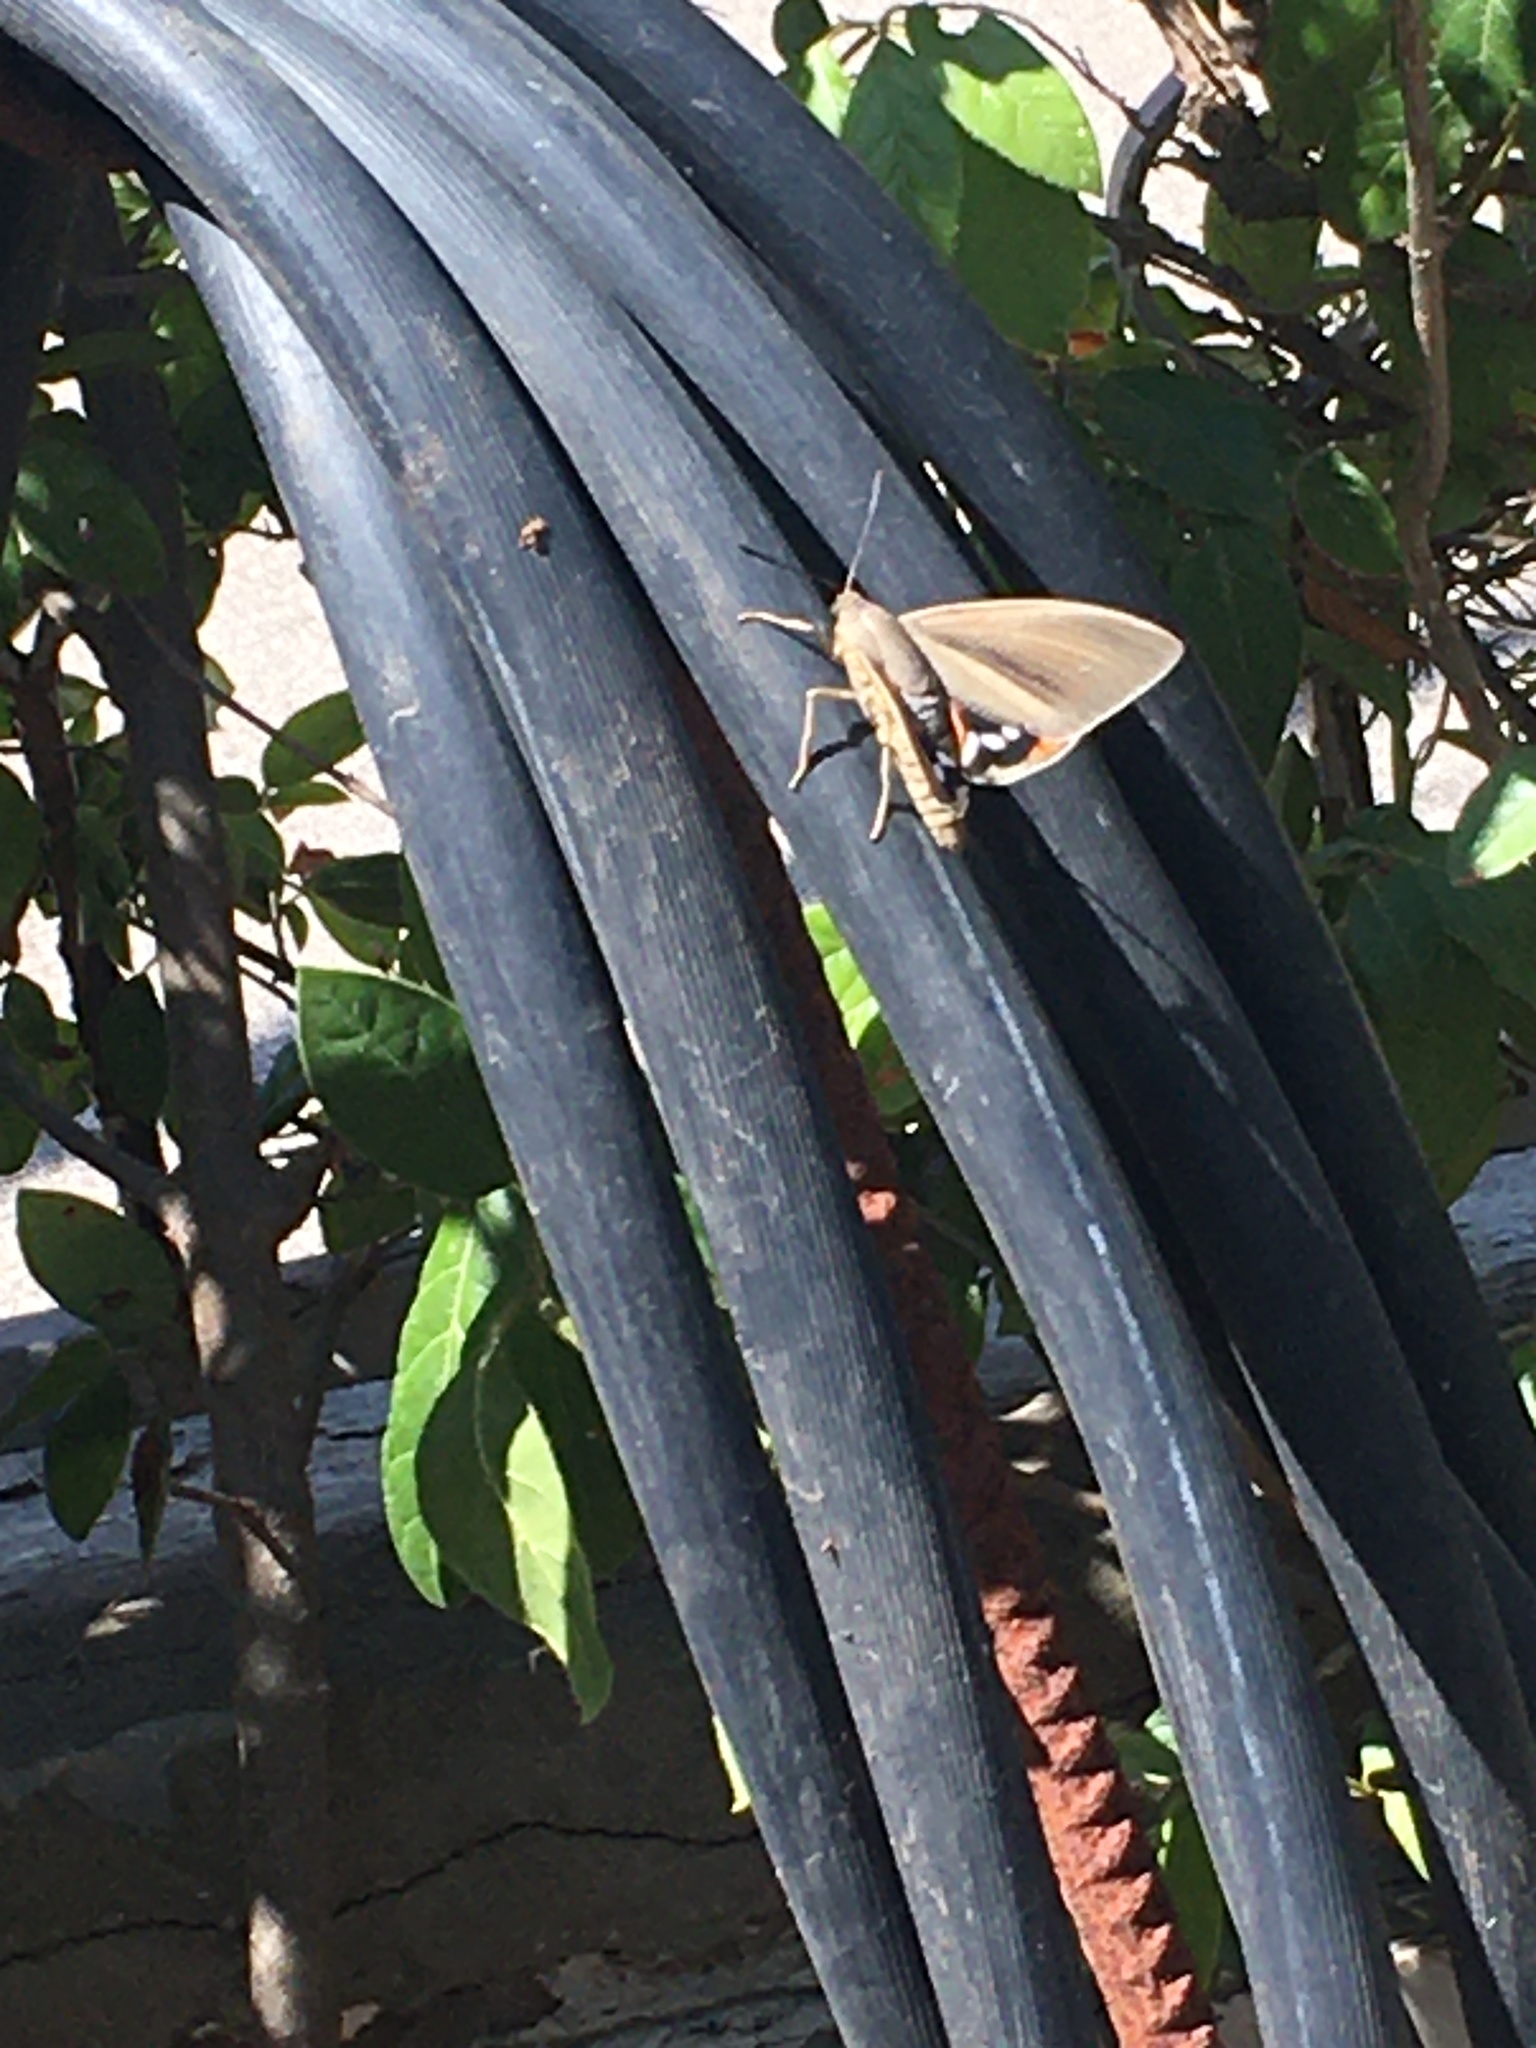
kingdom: Animalia
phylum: Arthropoda
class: Insecta
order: Lepidoptera
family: Castniidae
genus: Paysandisia
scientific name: Paysandisia archon
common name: Palm moth
